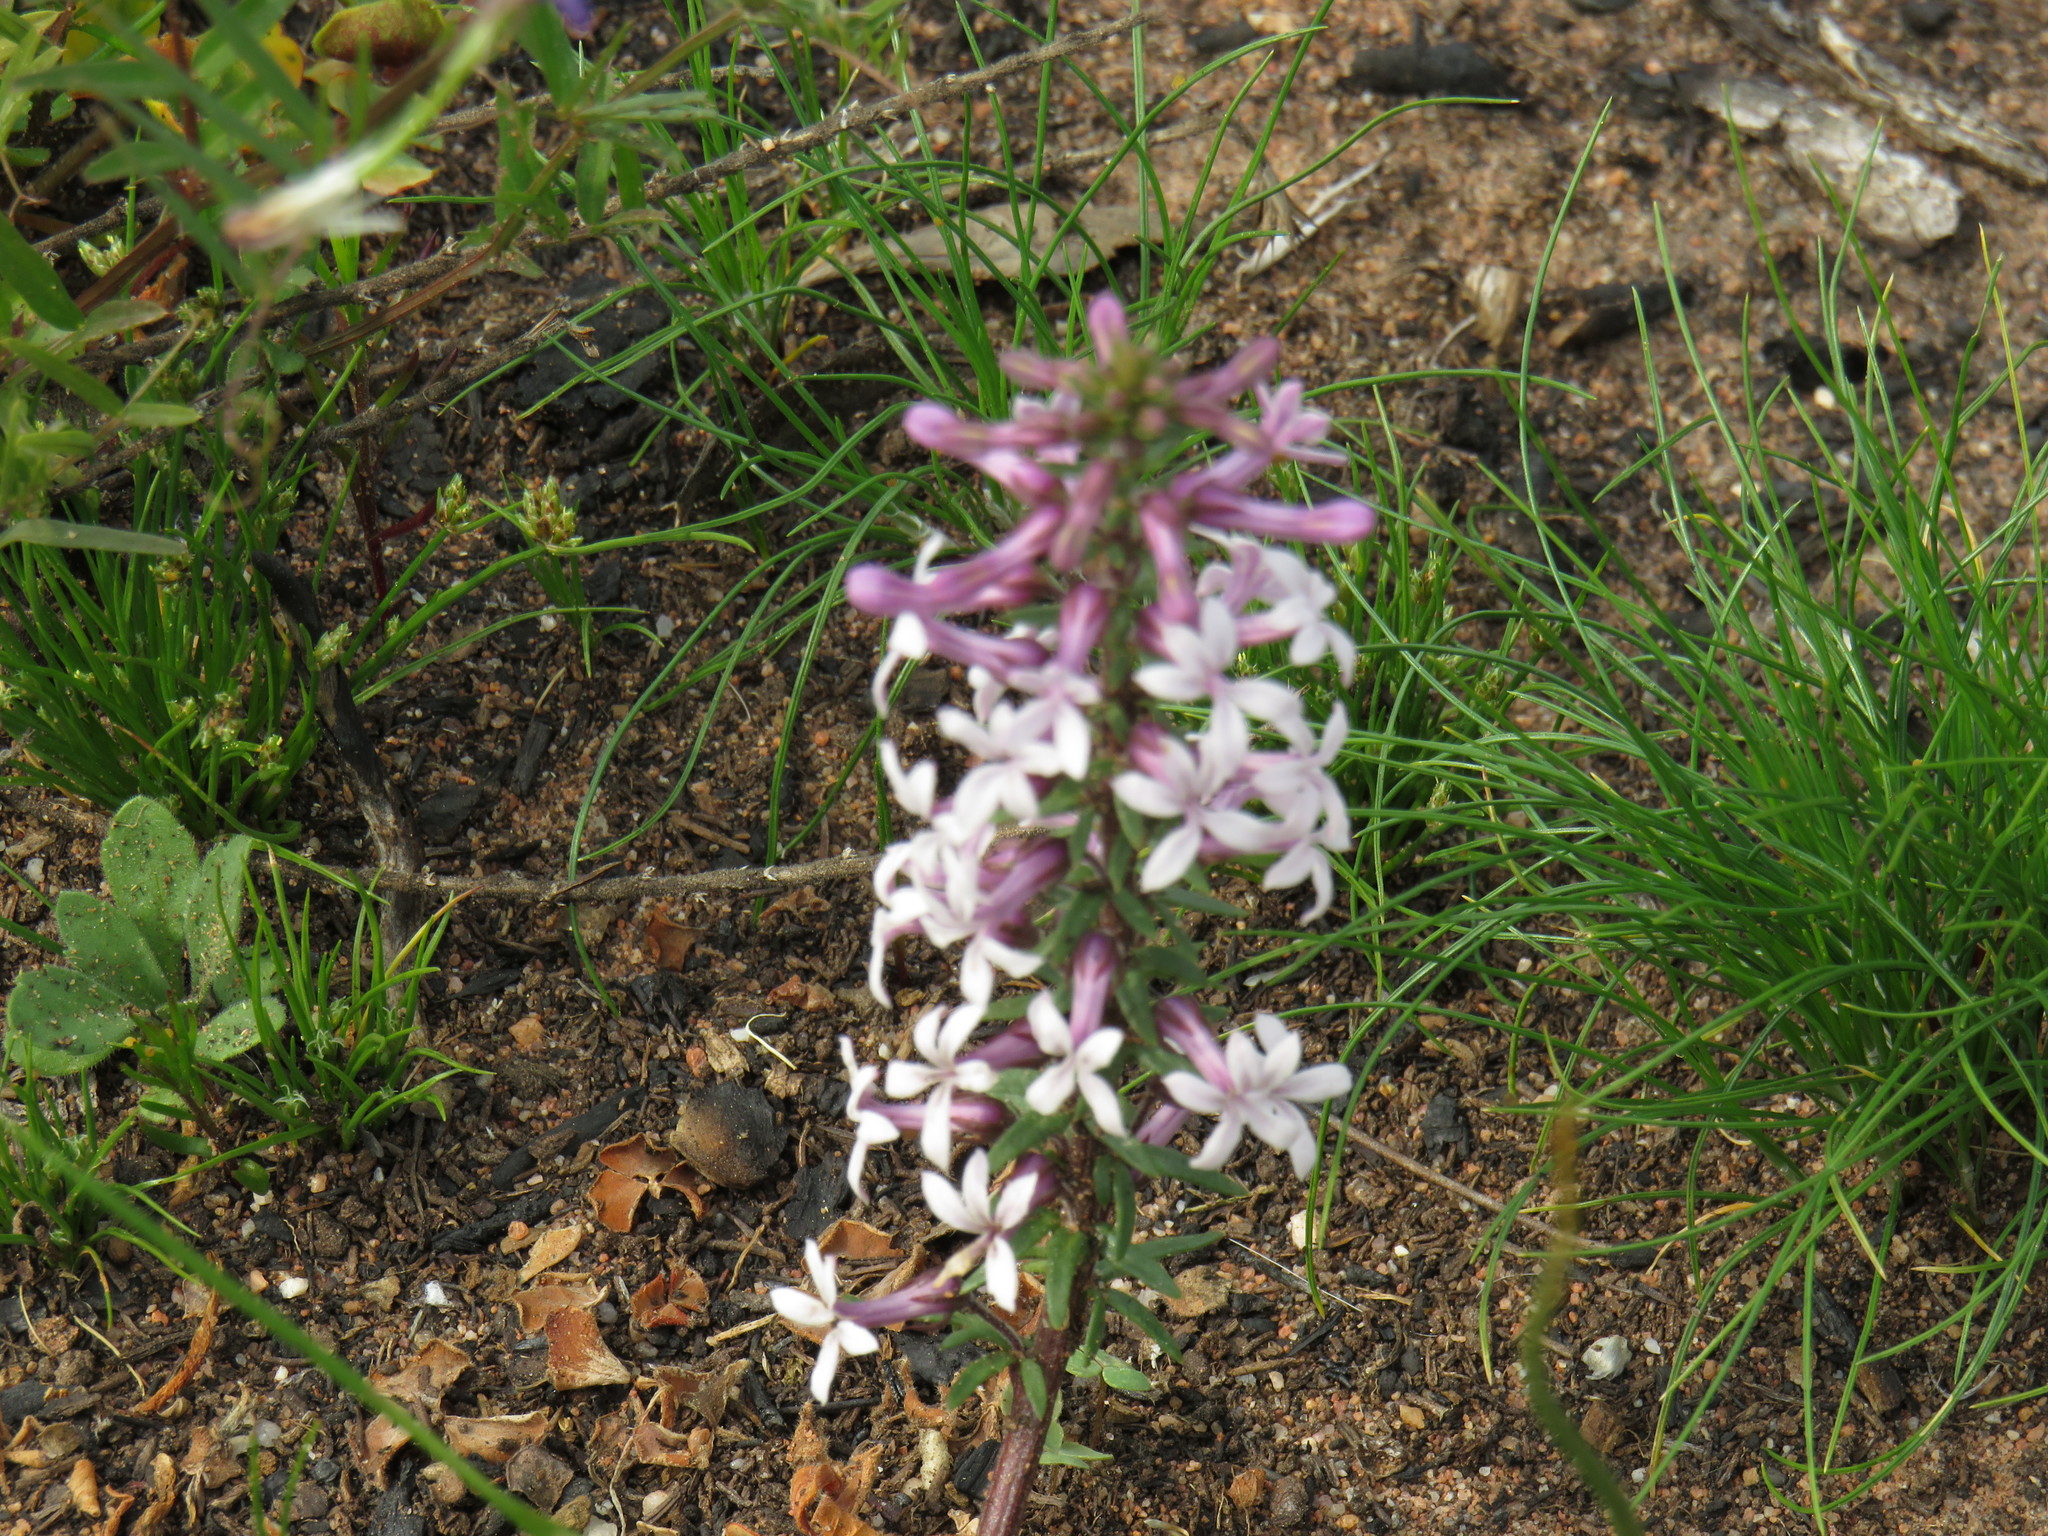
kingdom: Plantae
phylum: Tracheophyta
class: Magnoliopsida
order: Asterales
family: Campanulaceae
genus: Cyphia
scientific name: Cyphia bulbosa
